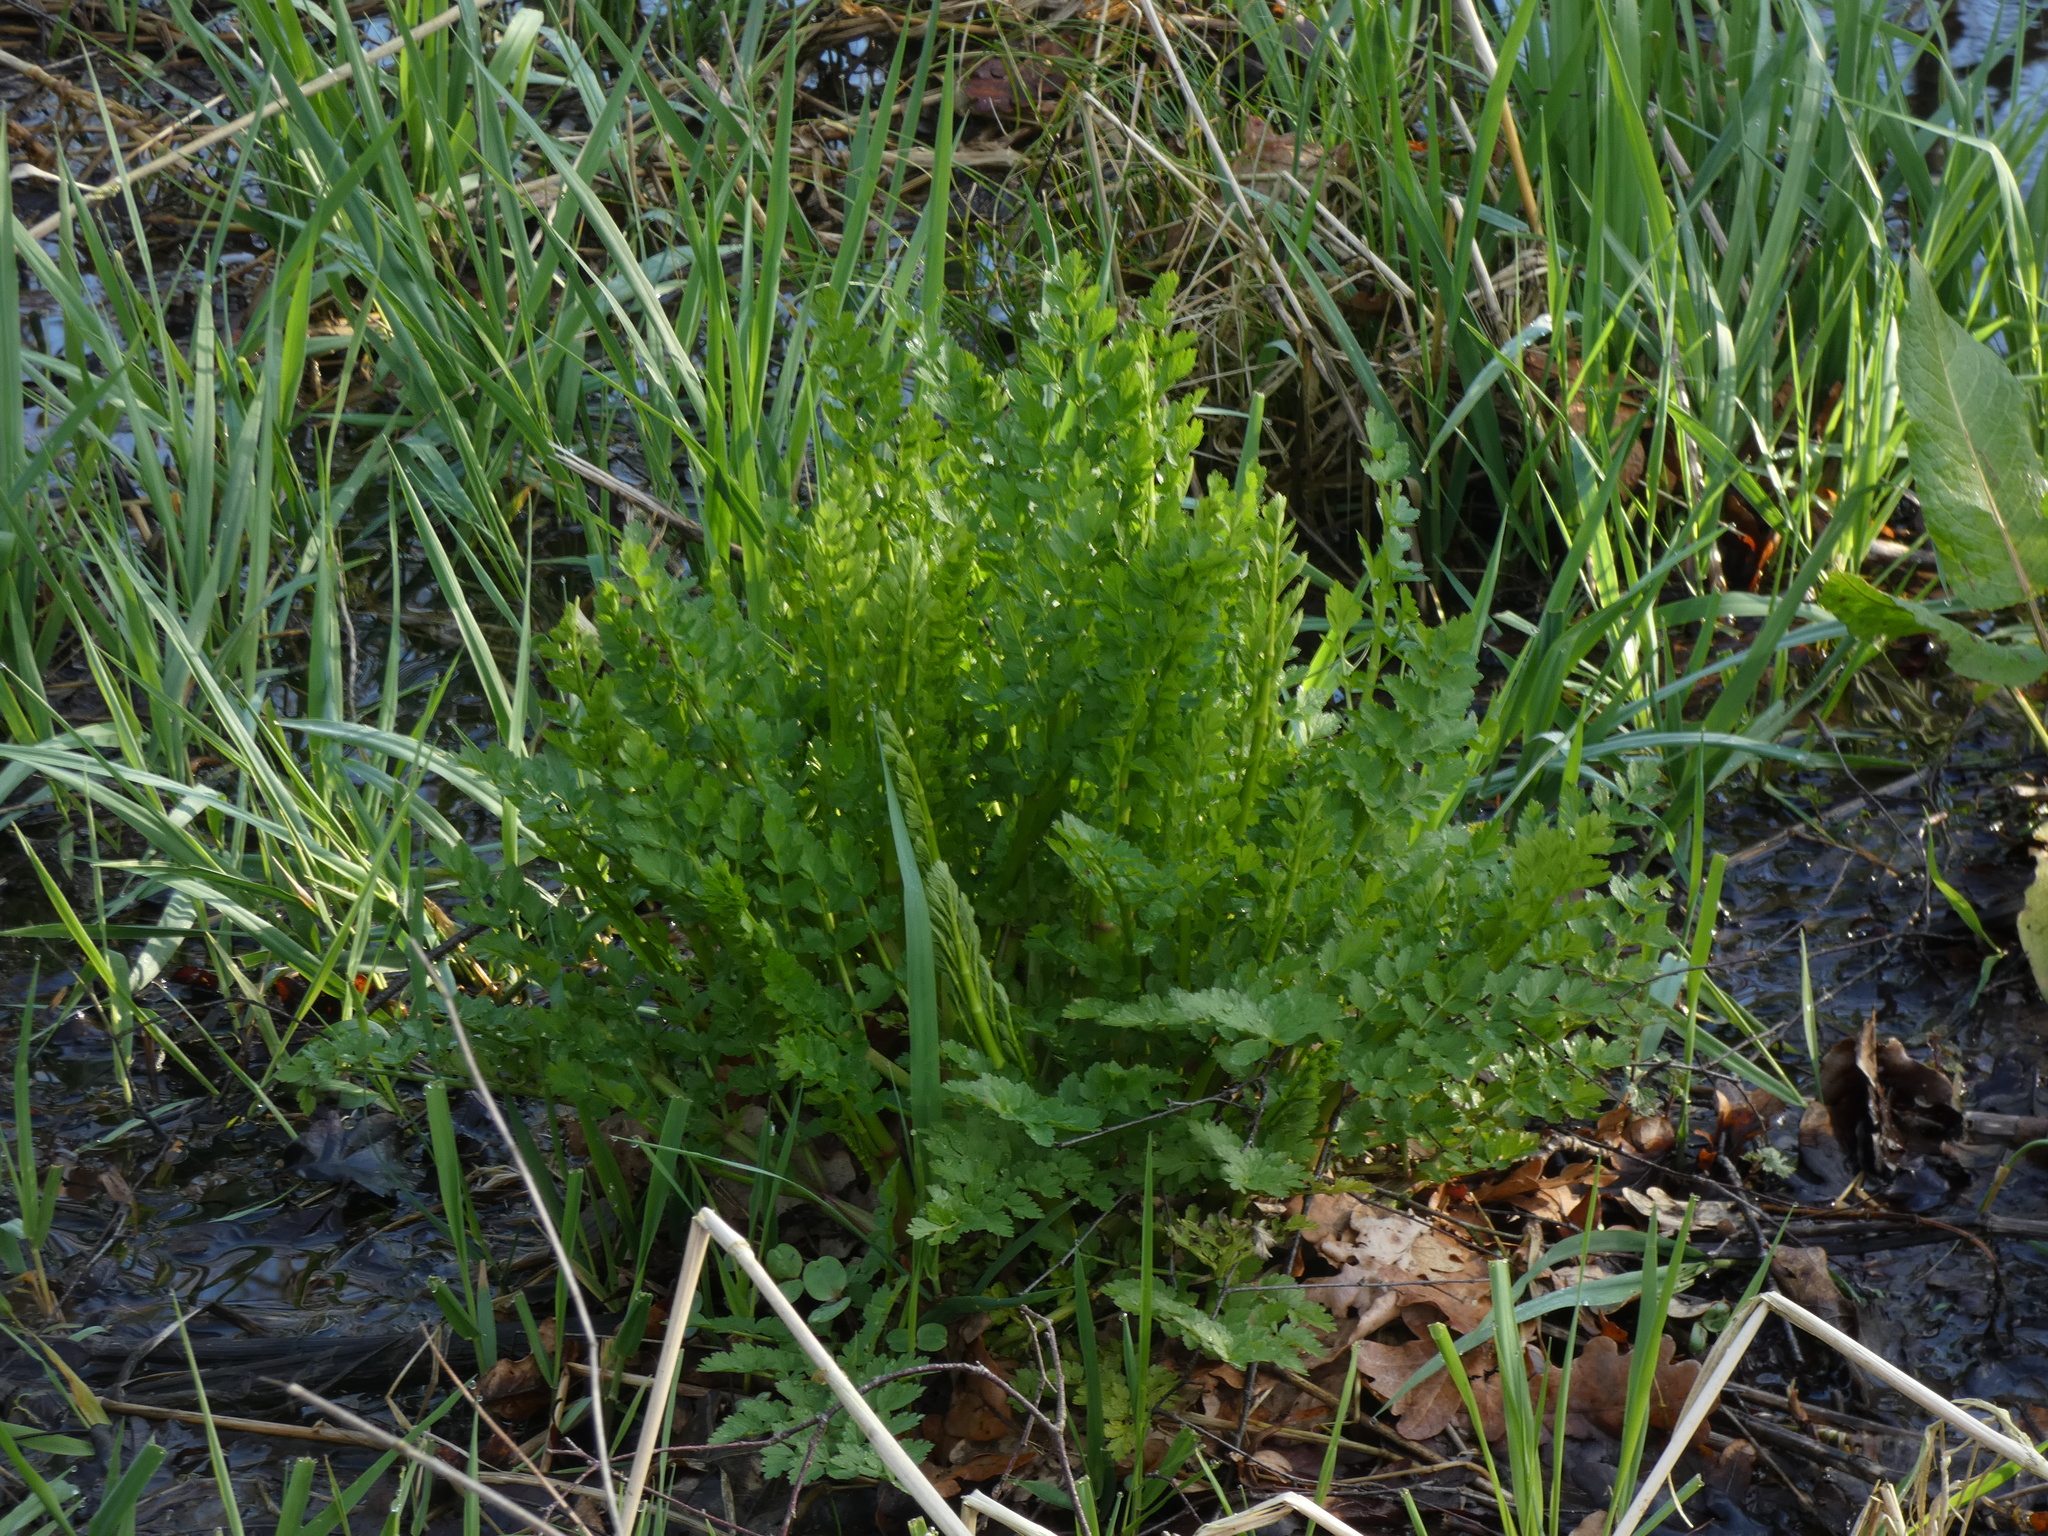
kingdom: Plantae
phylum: Tracheophyta
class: Magnoliopsida
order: Apiales
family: Apiaceae
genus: Oenanthe
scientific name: Oenanthe crocata
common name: Hemlock water-dropwort
